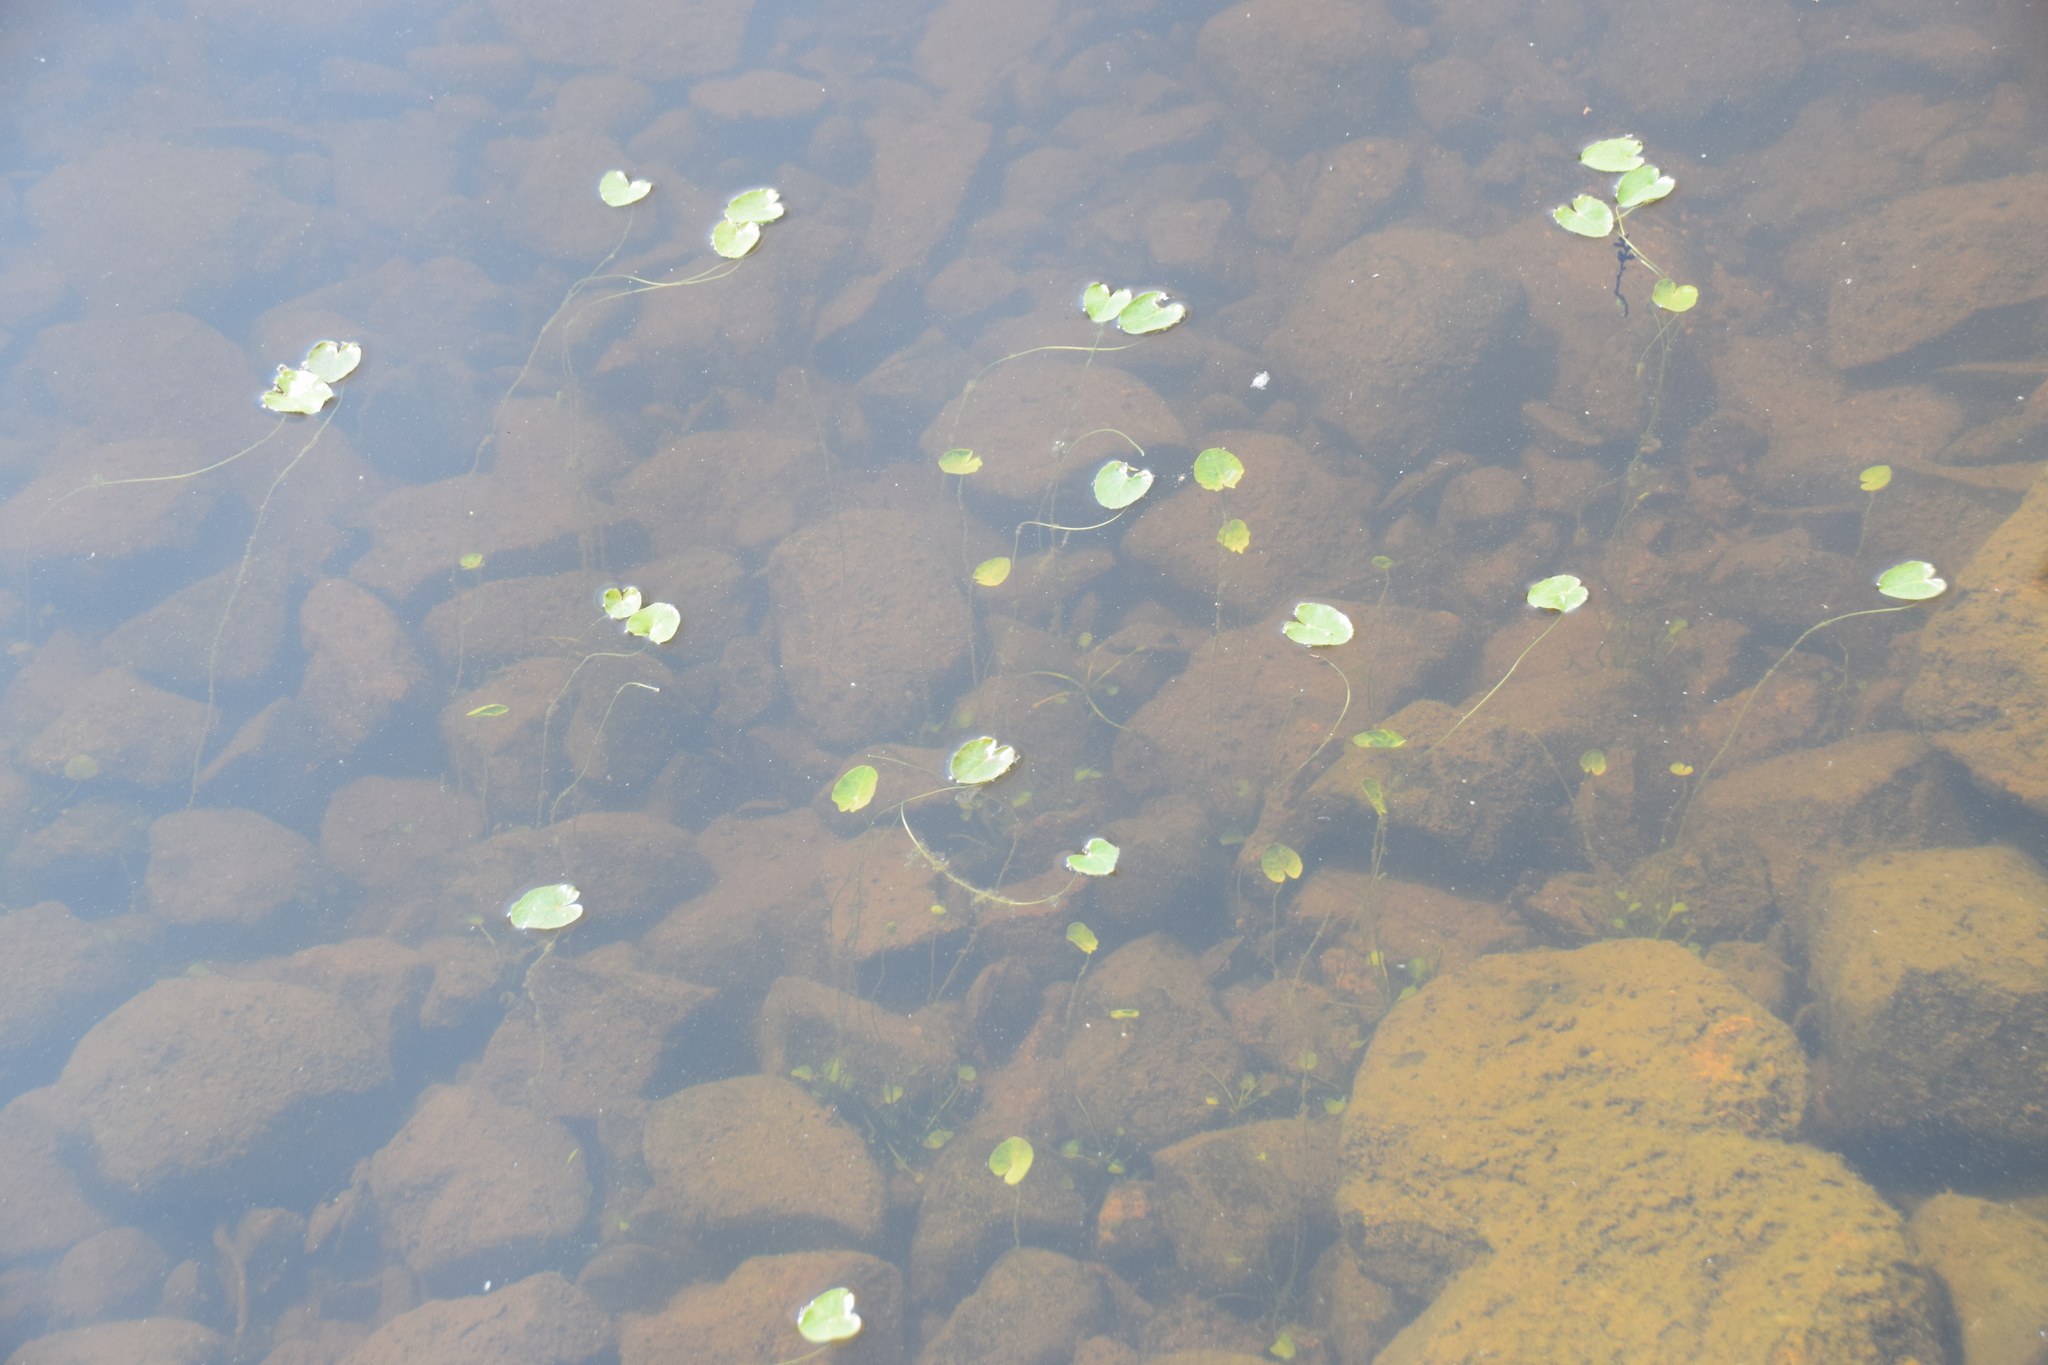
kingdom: Plantae
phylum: Tracheophyta
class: Magnoliopsida
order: Asterales
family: Menyanthaceae
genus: Nymphoides
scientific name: Nymphoides cordata
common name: Eight-angled floatingheart
